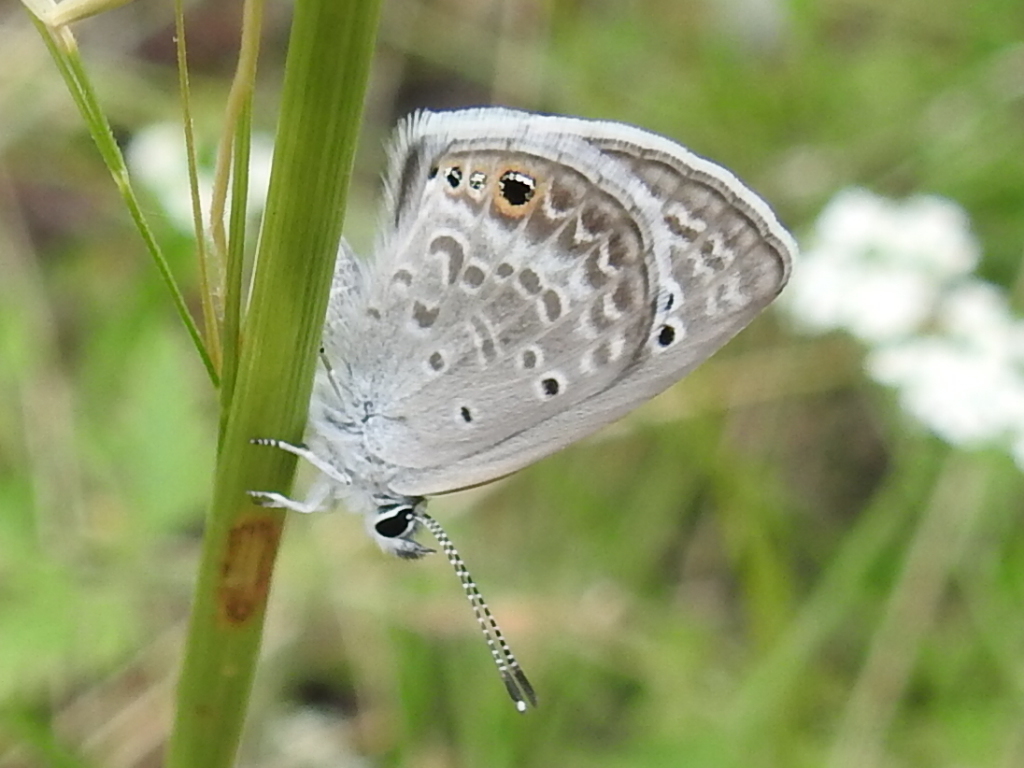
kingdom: Animalia
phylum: Arthropoda
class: Insecta
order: Lepidoptera
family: Lycaenidae
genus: Echinargus
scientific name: Echinargus isola
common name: Reakirt's blue
